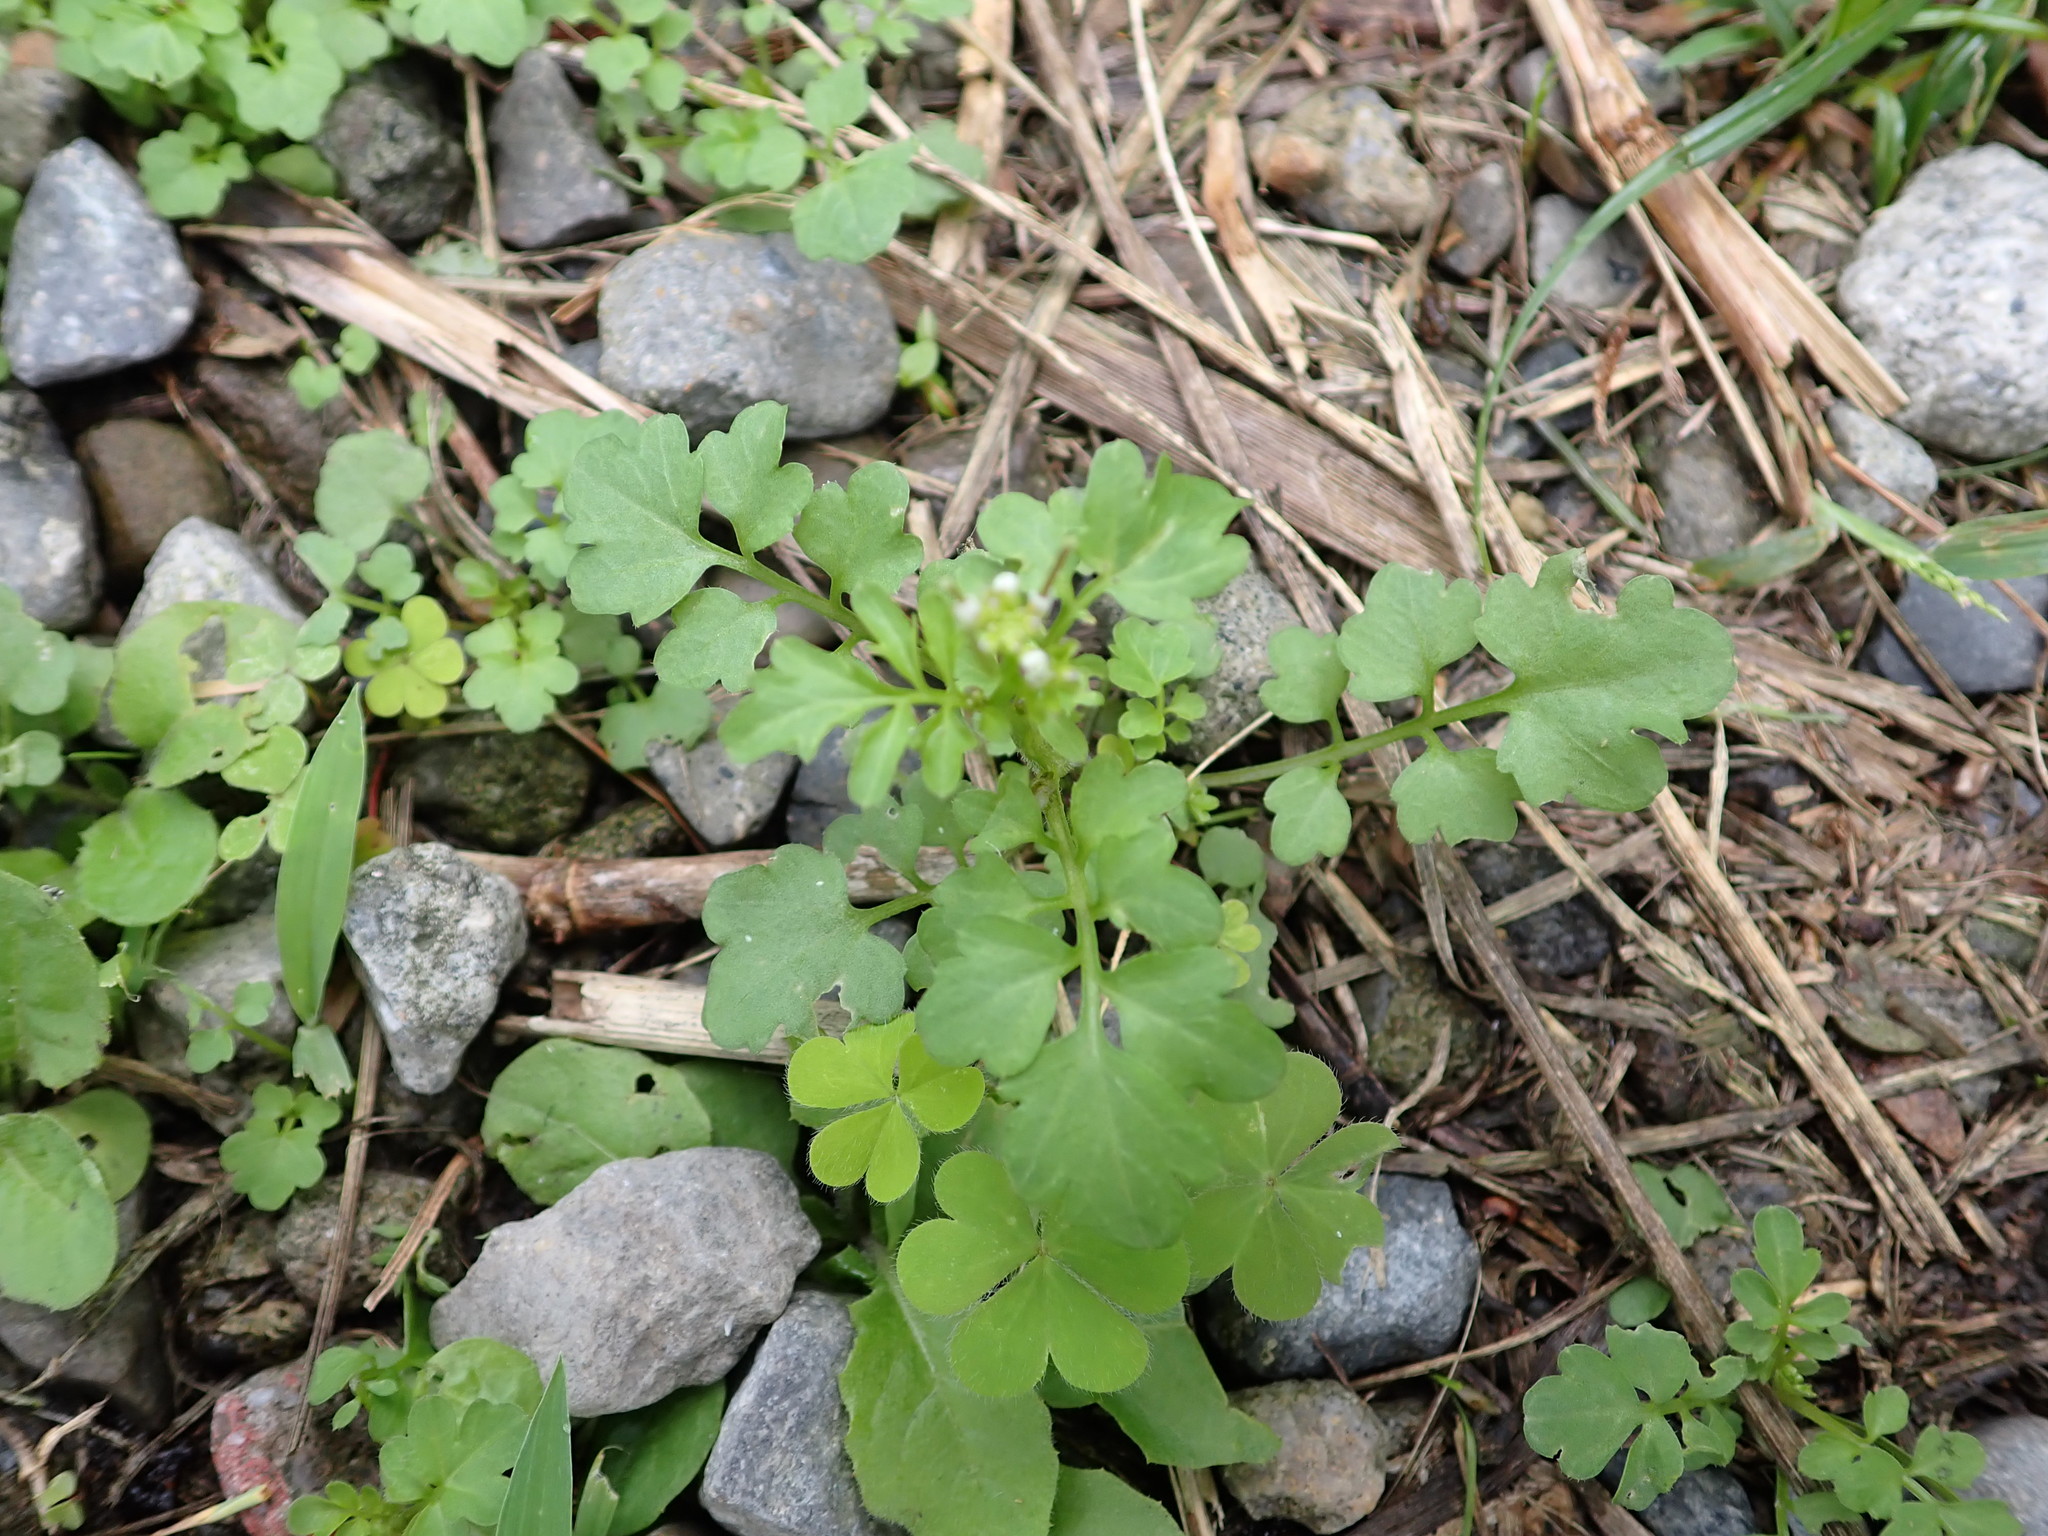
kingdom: Plantae
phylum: Tracheophyta
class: Magnoliopsida
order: Brassicales
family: Brassicaceae
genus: Cardamine
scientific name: Cardamine flexuosa
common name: Woodland bittercress
